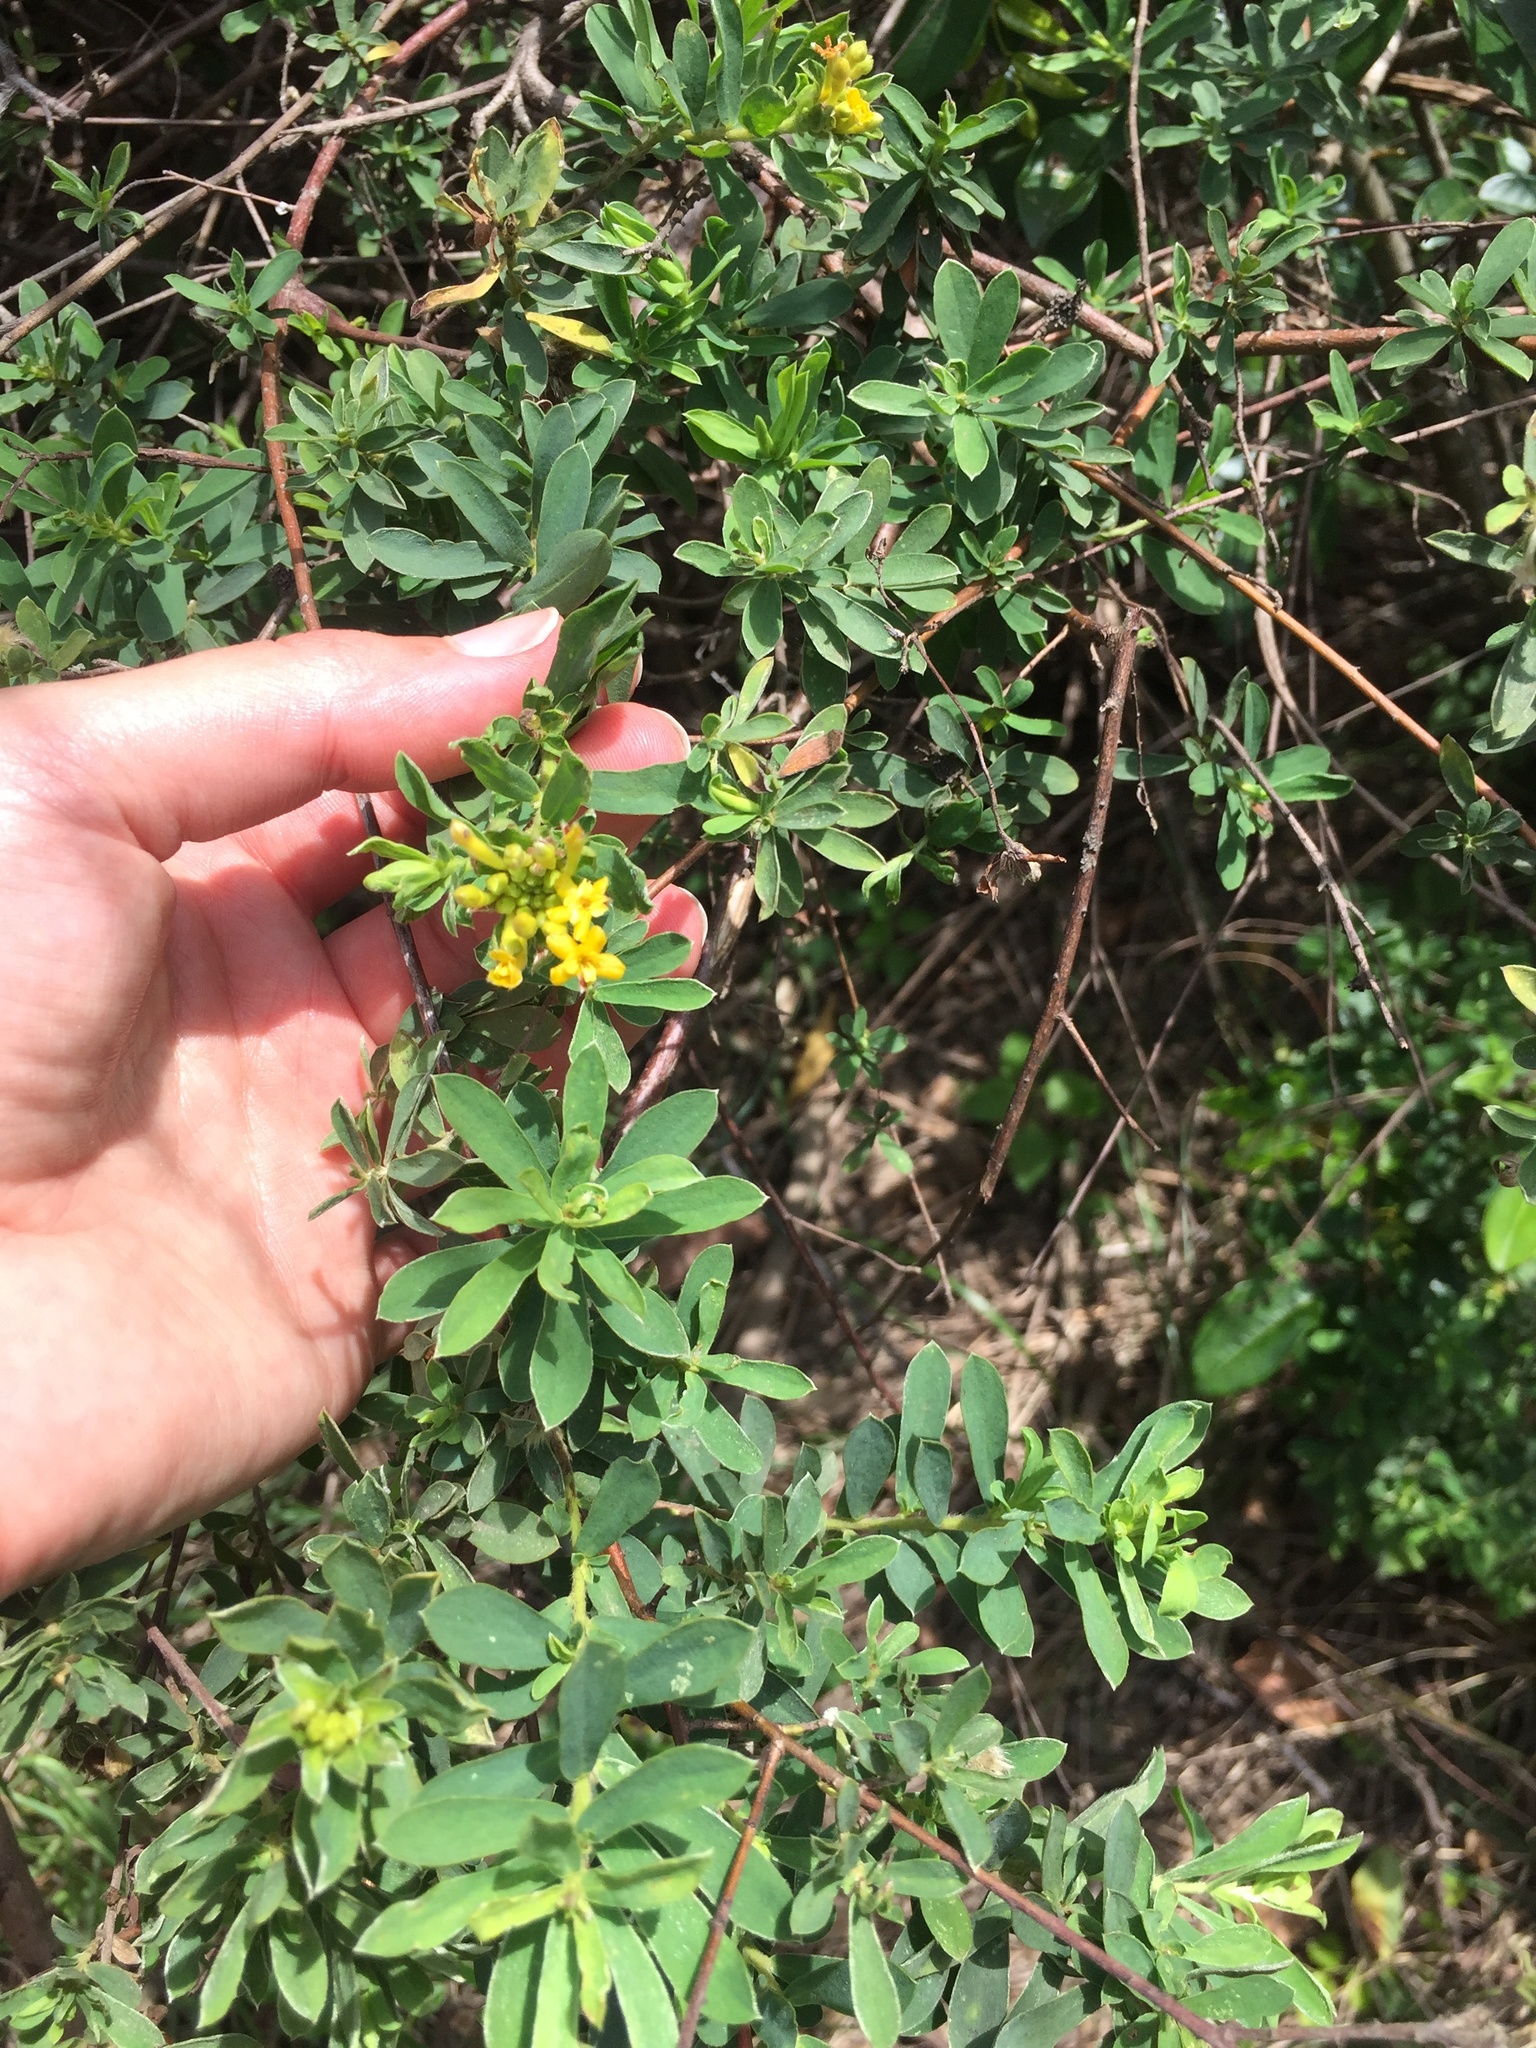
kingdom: Plantae
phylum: Tracheophyta
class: Magnoliopsida
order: Malvales
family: Thymelaeaceae
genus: Gnidia
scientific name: Gnidia macropetala
